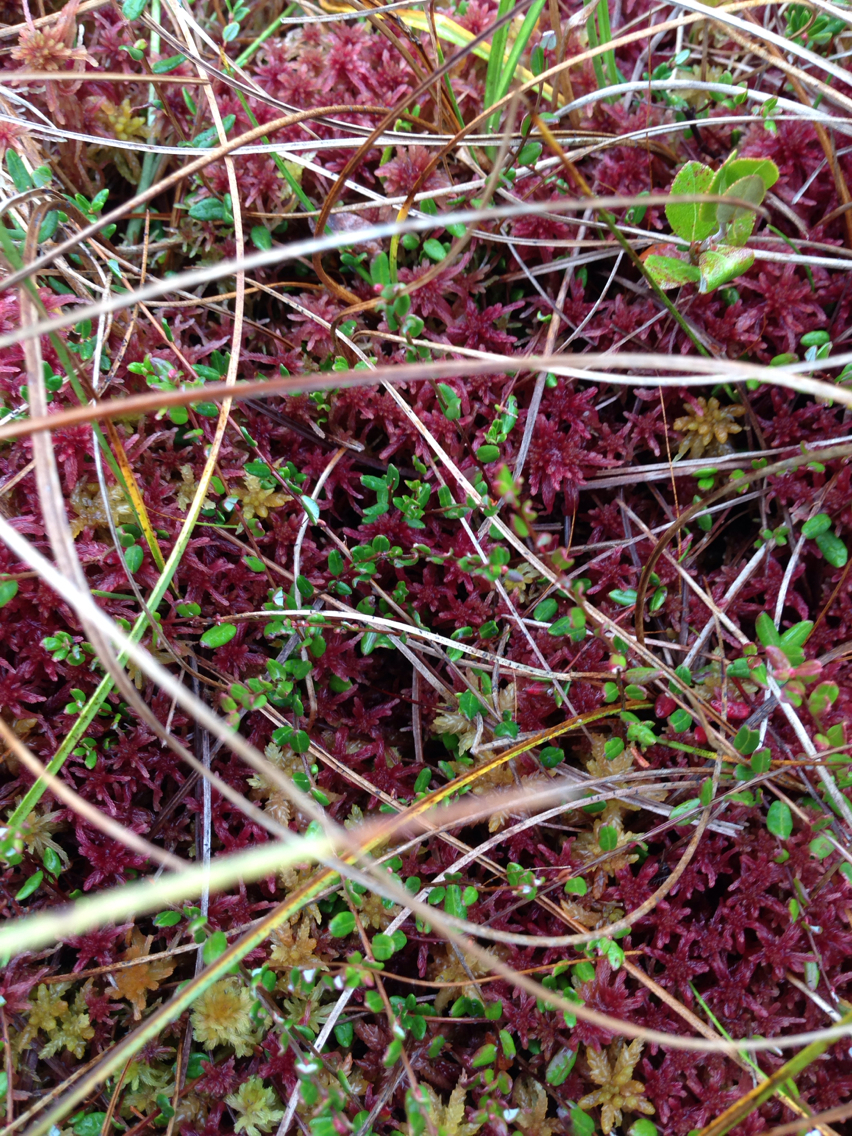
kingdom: Plantae
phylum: Tracheophyta
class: Magnoliopsida
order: Ericales
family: Ericaceae
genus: Vaccinium
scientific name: Vaccinium oxycoccos
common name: Cranberry
